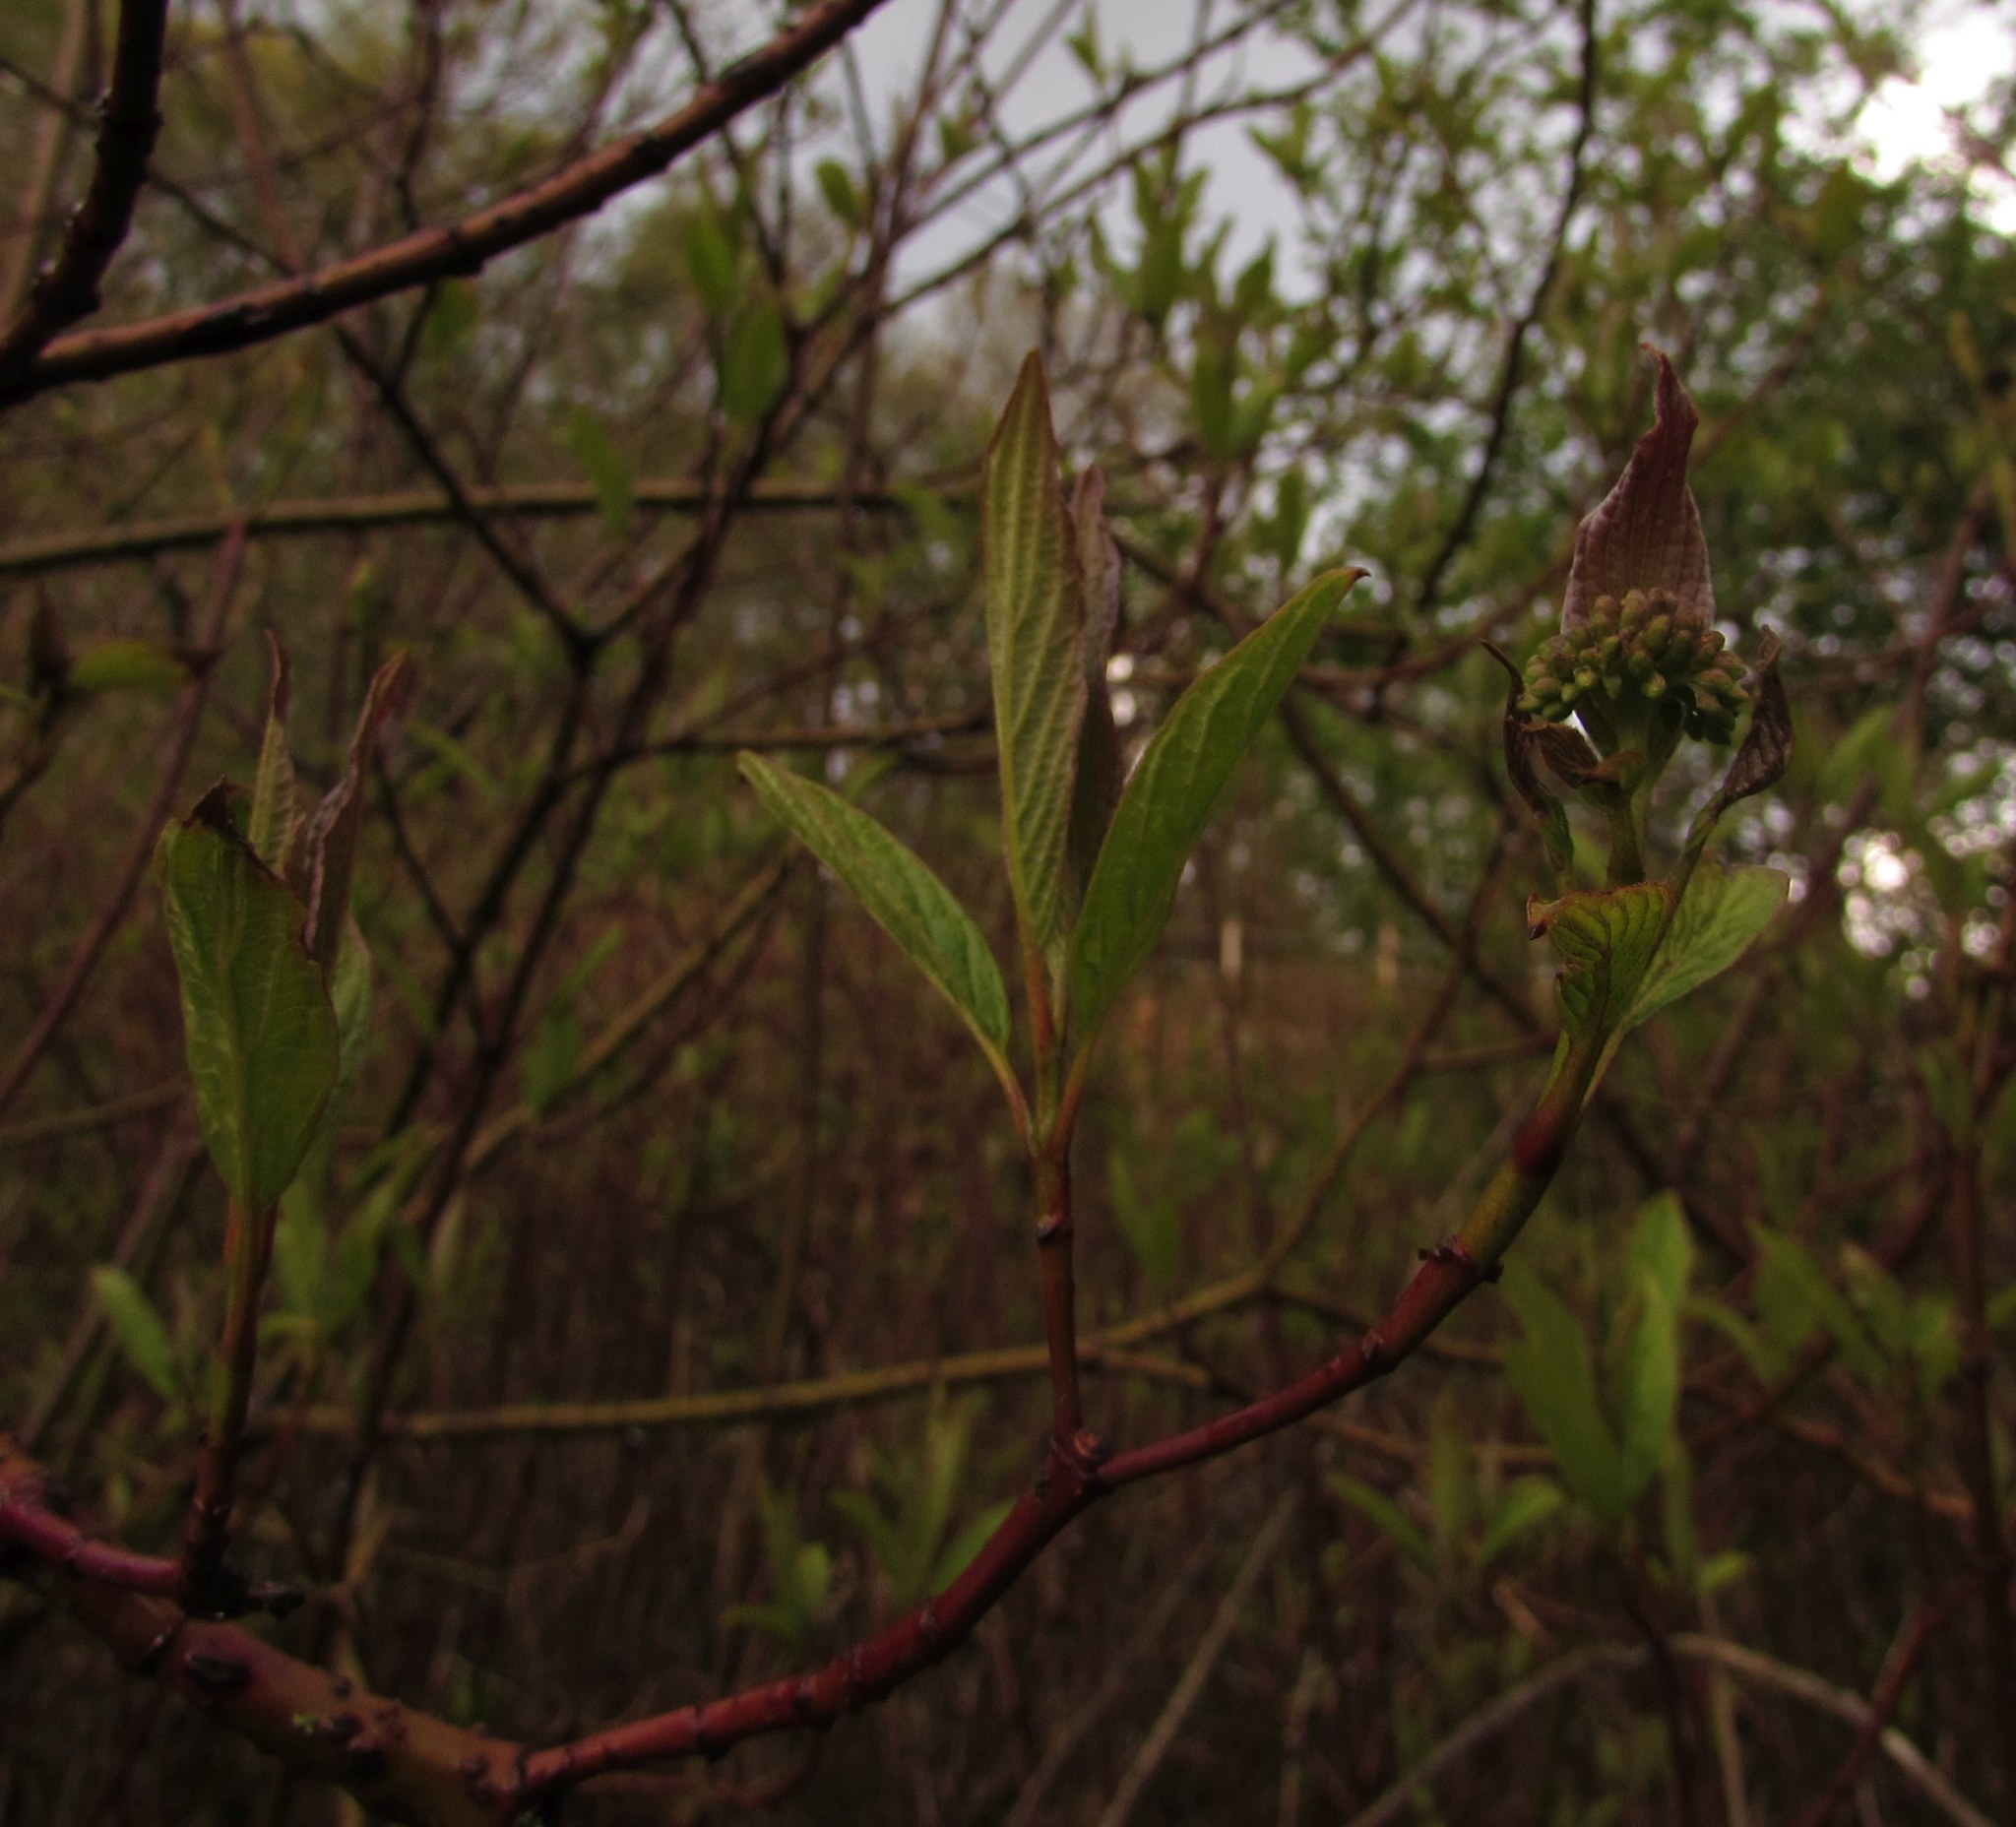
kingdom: Plantae
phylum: Tracheophyta
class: Magnoliopsida
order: Cornales
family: Cornaceae
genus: Cornus
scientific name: Cornus sanguinea
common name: Dogwood
